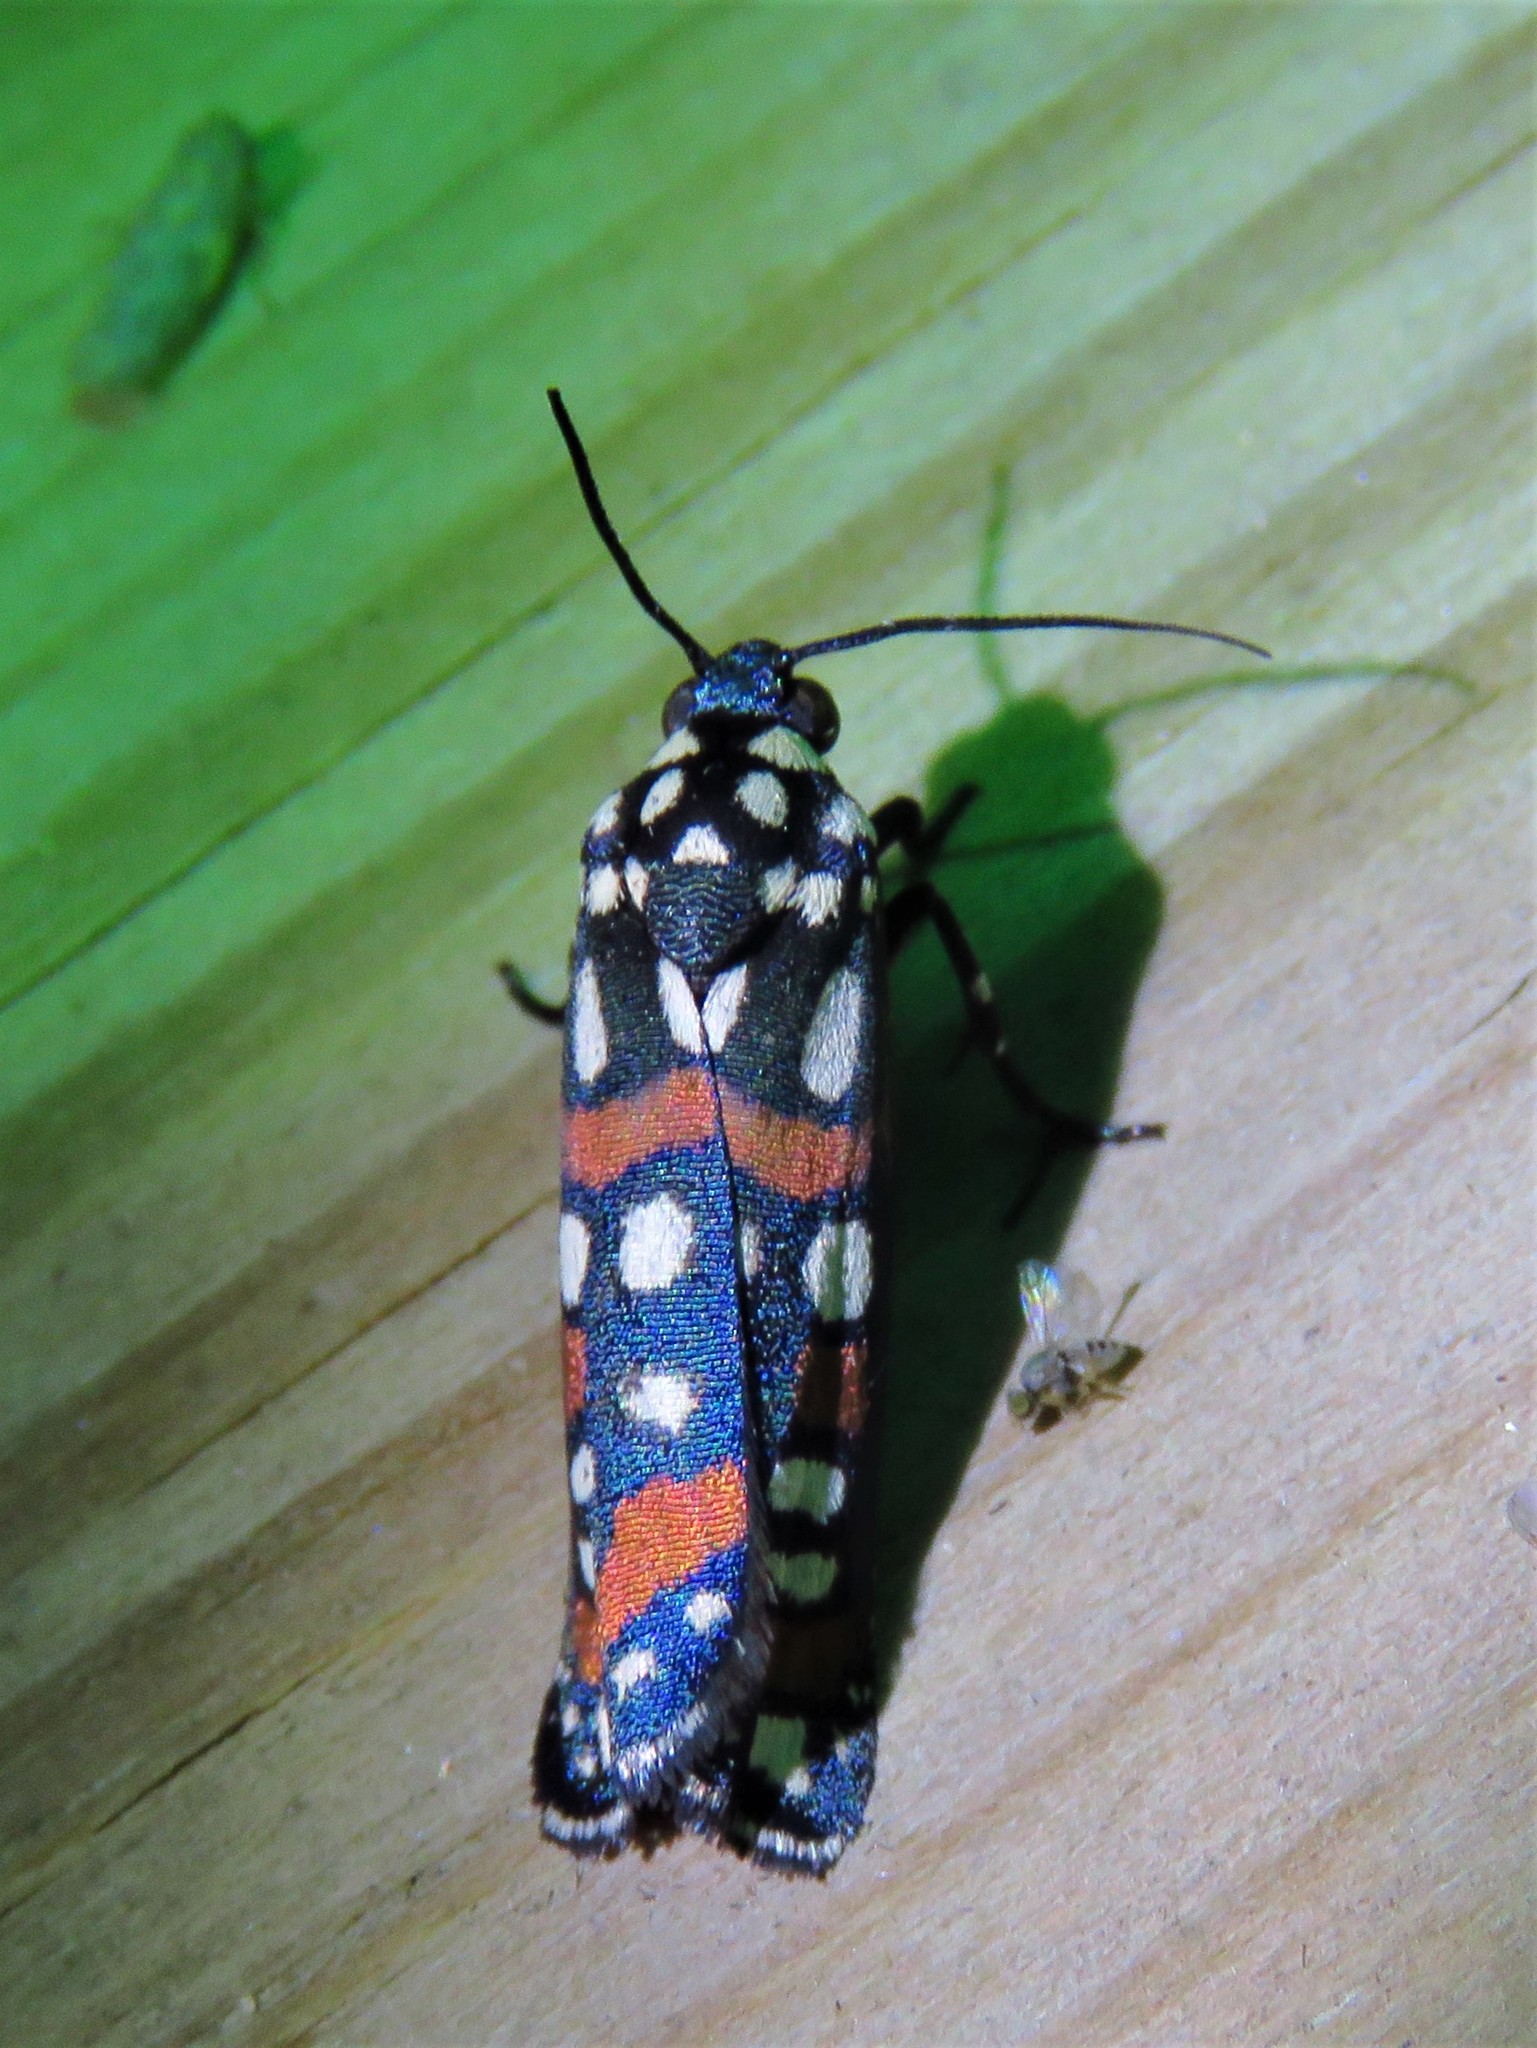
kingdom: Animalia
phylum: Arthropoda
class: Insecta
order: Lepidoptera
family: Noctuidae
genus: Cydosia
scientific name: Cydosia aurivitta
